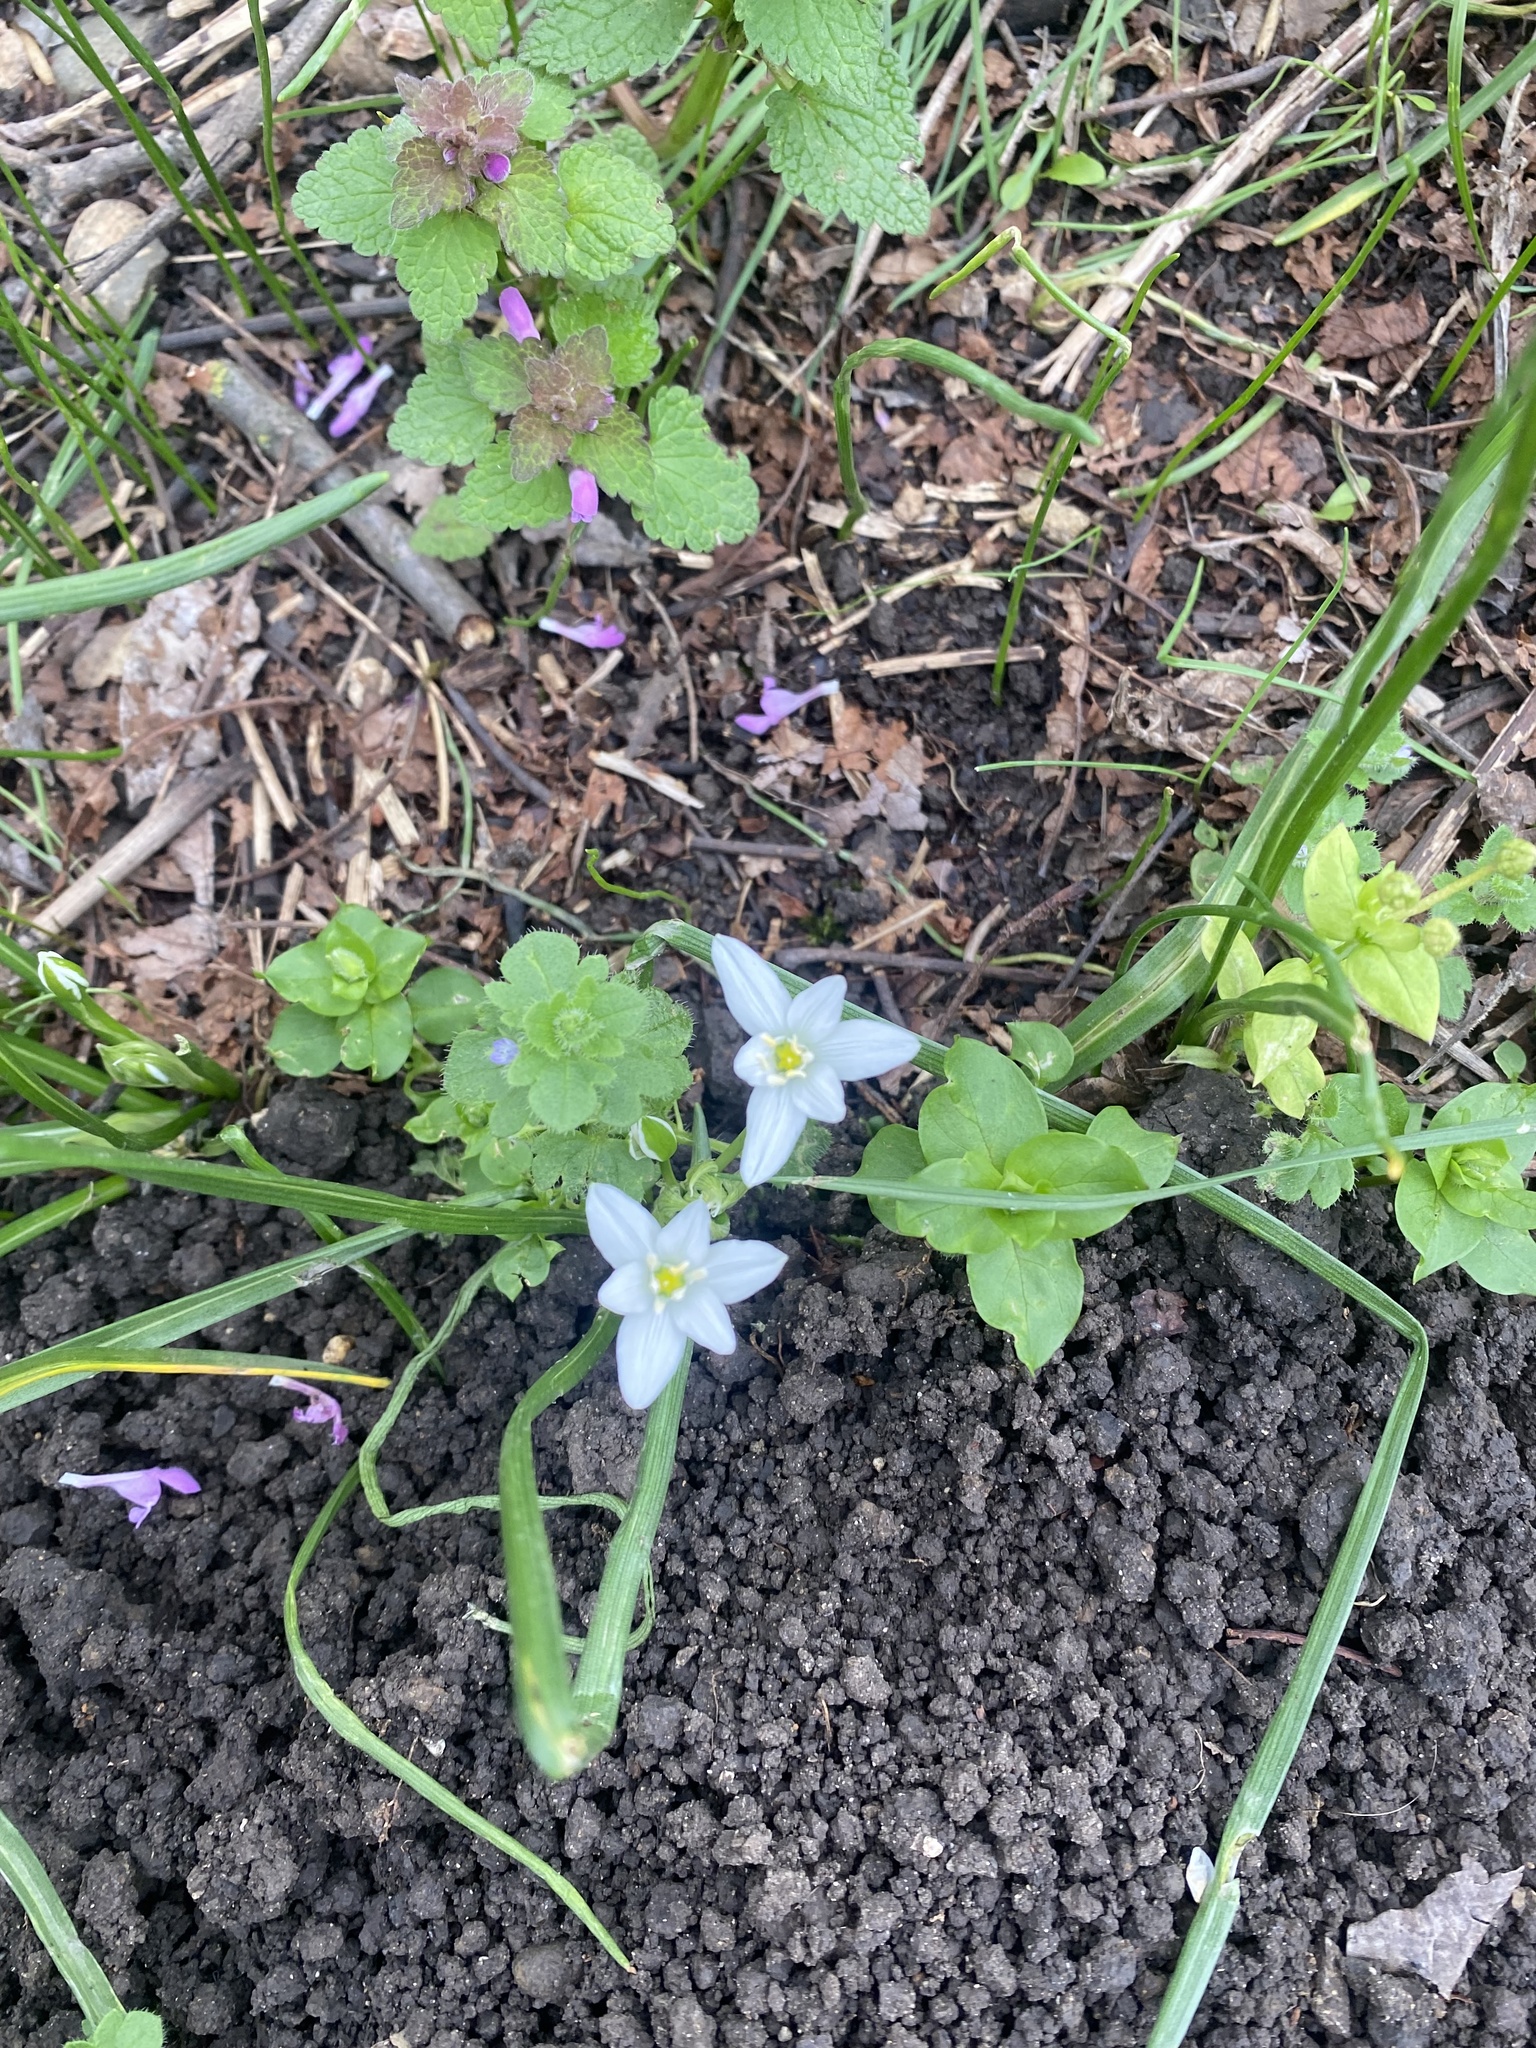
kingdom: Plantae
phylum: Tracheophyta
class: Liliopsida
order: Asparagales
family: Asparagaceae
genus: Ornithogalum
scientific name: Ornithogalum woronowii
